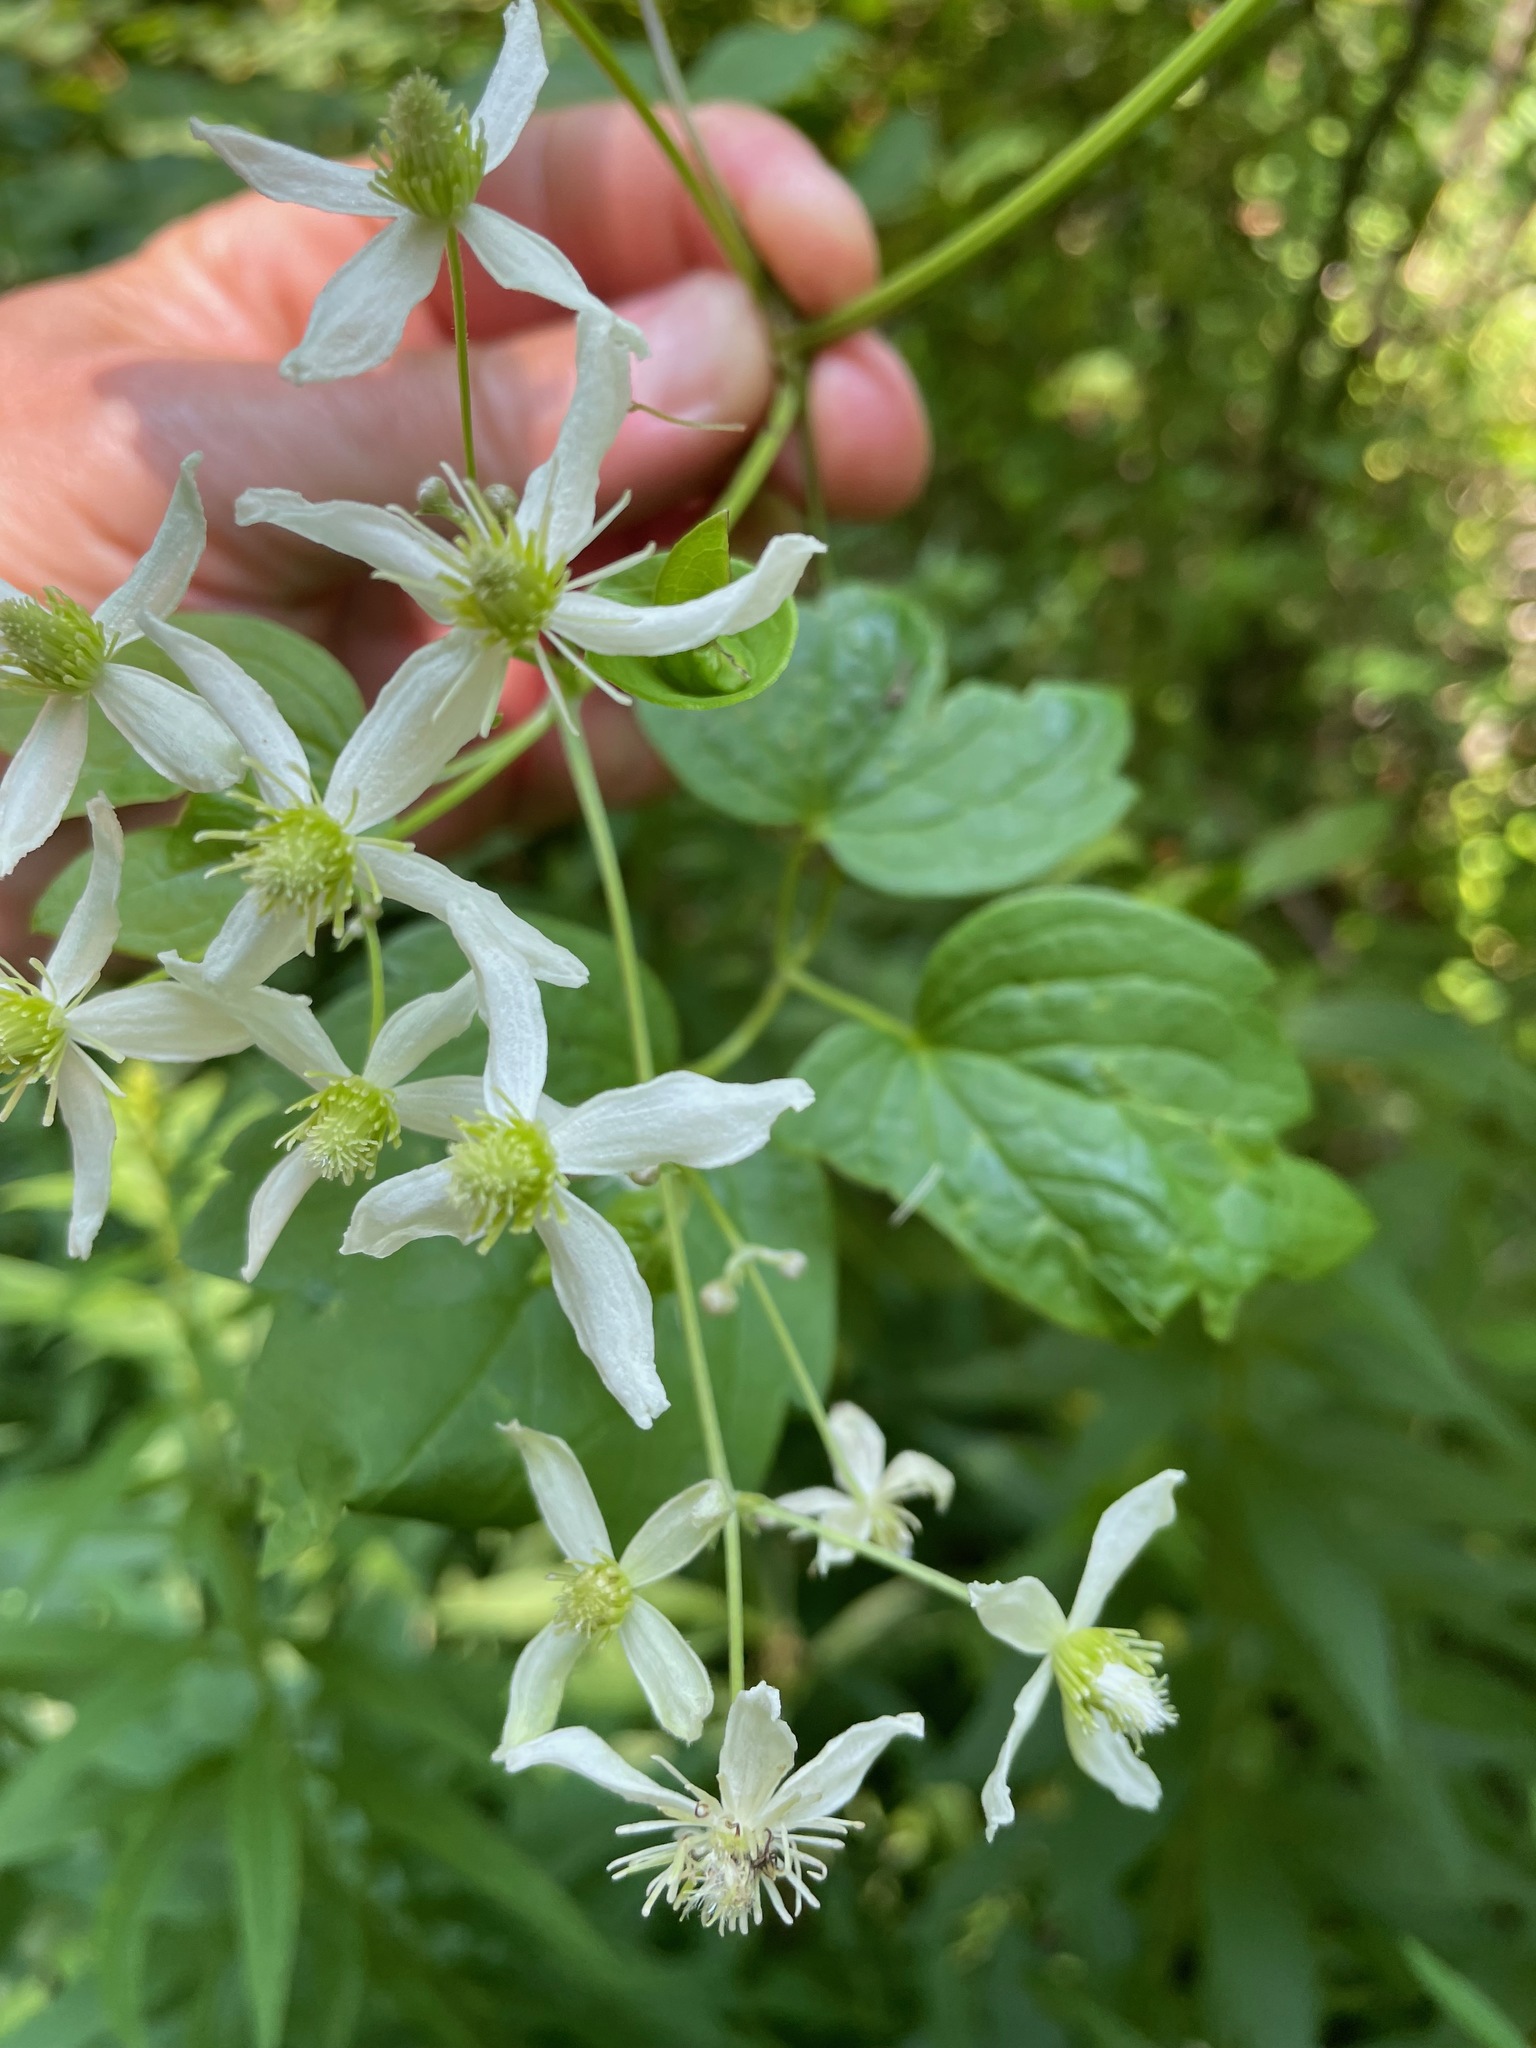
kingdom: Plantae
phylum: Tracheophyta
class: Magnoliopsida
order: Ranunculales
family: Ranunculaceae
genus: Clematis
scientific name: Clematis virginiana
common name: Virgin's-bower
